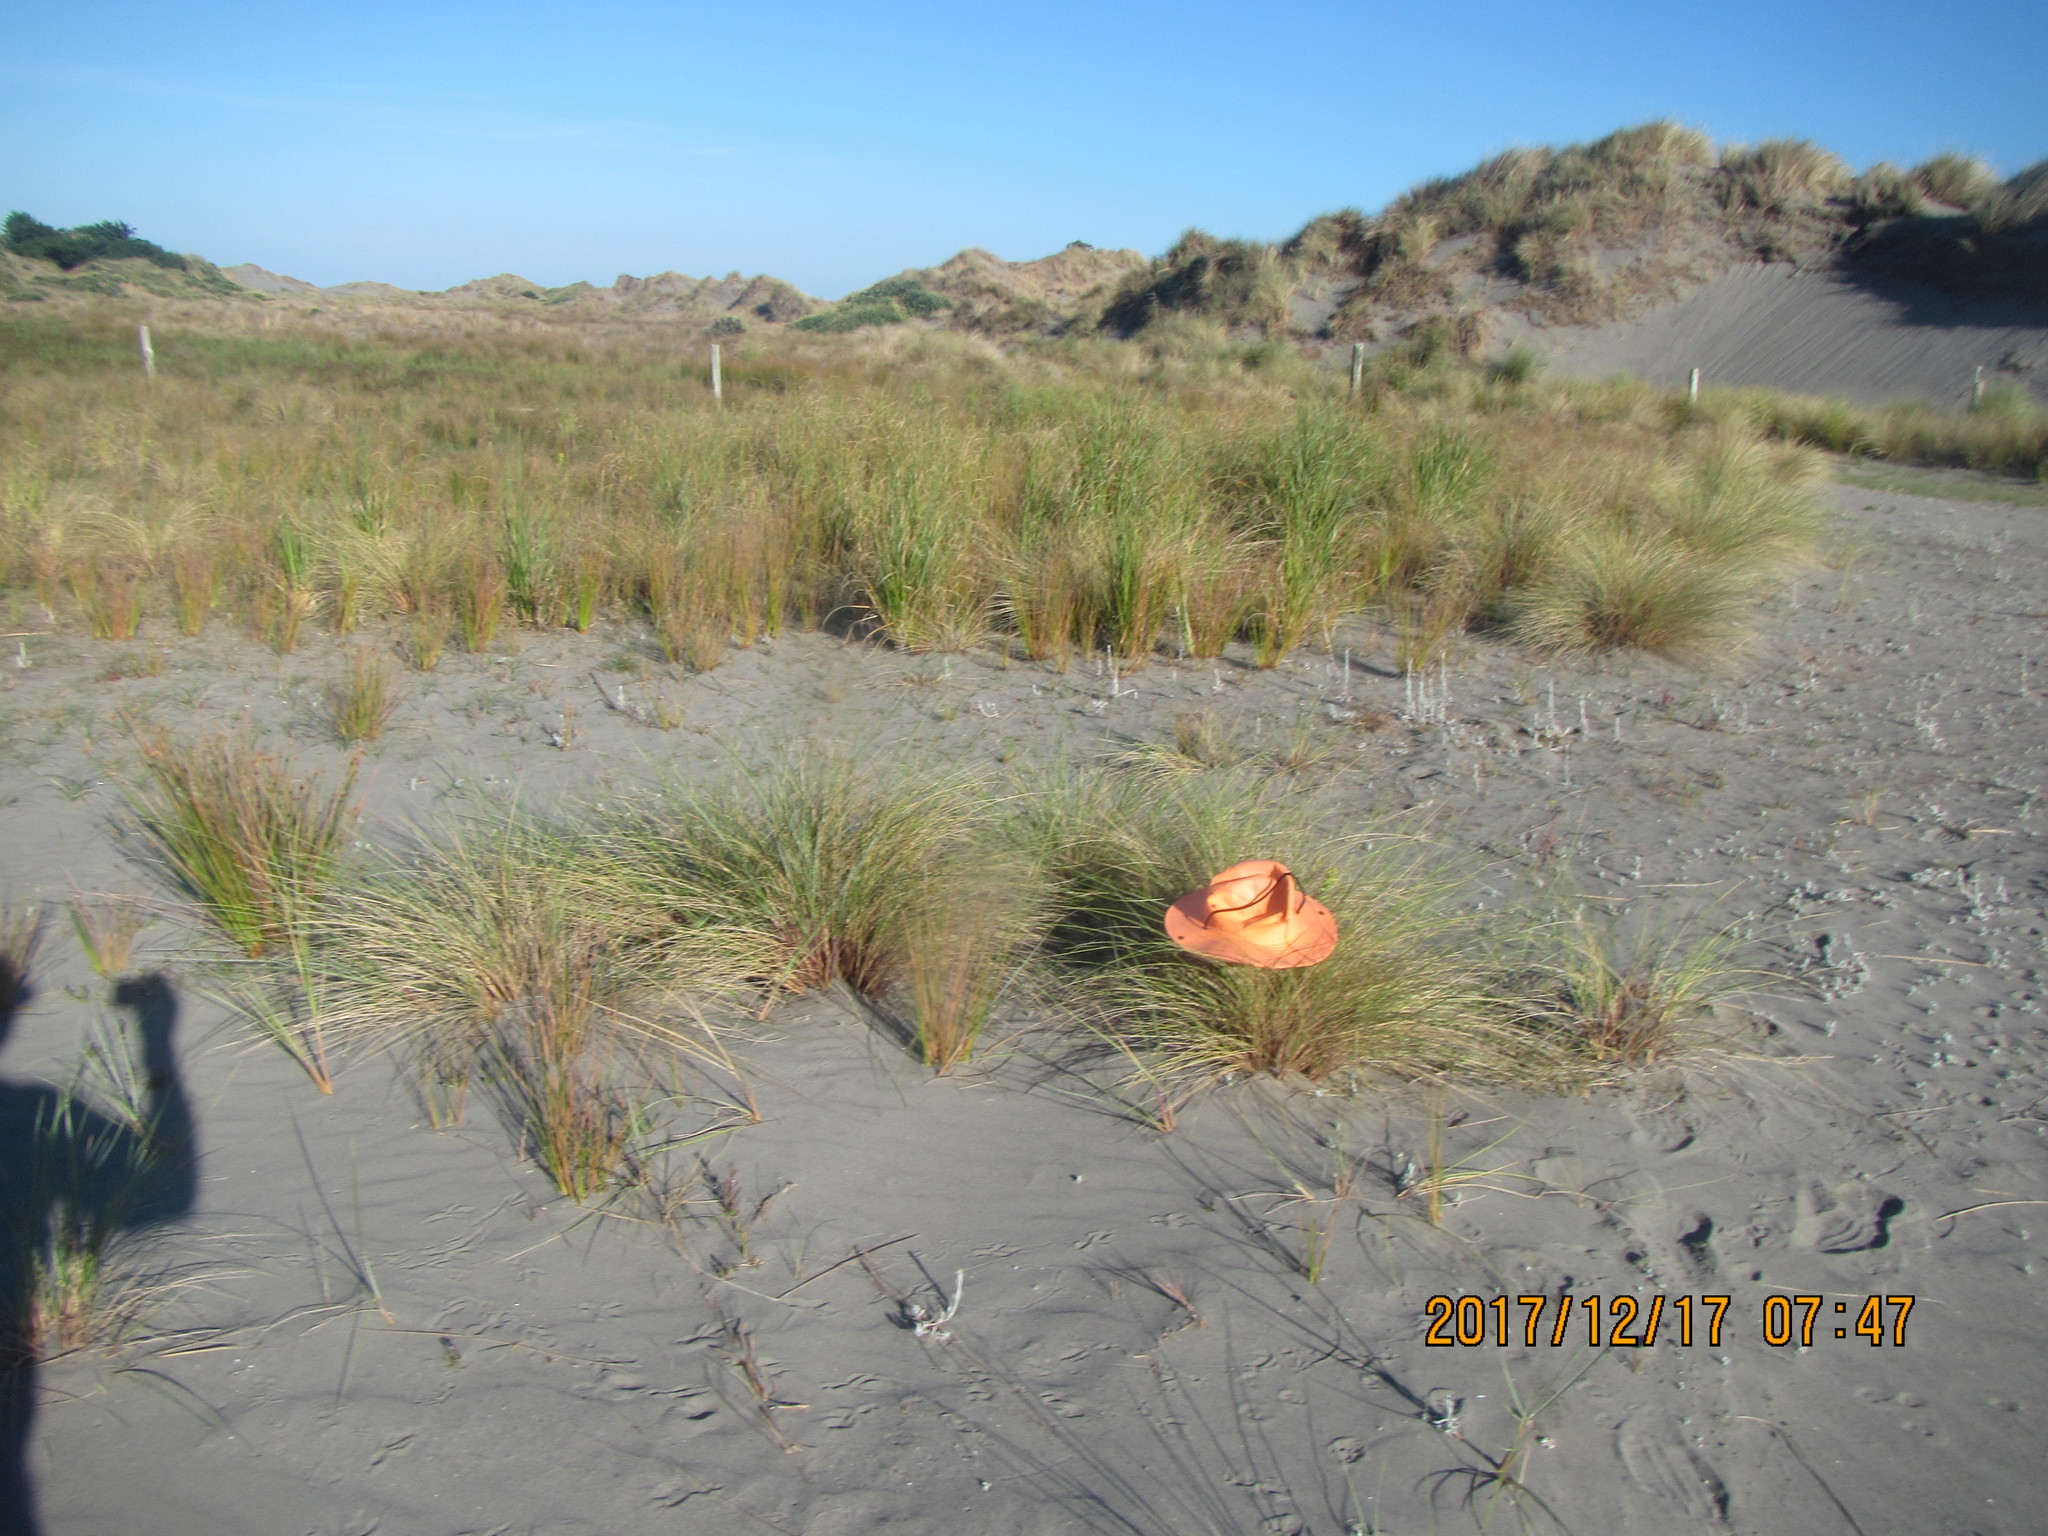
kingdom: Plantae
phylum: Tracheophyta
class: Magnoliopsida
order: Lamiales
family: Orobanchaceae
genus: Bellardia
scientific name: Bellardia viscosa
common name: Sticky parentucellia
